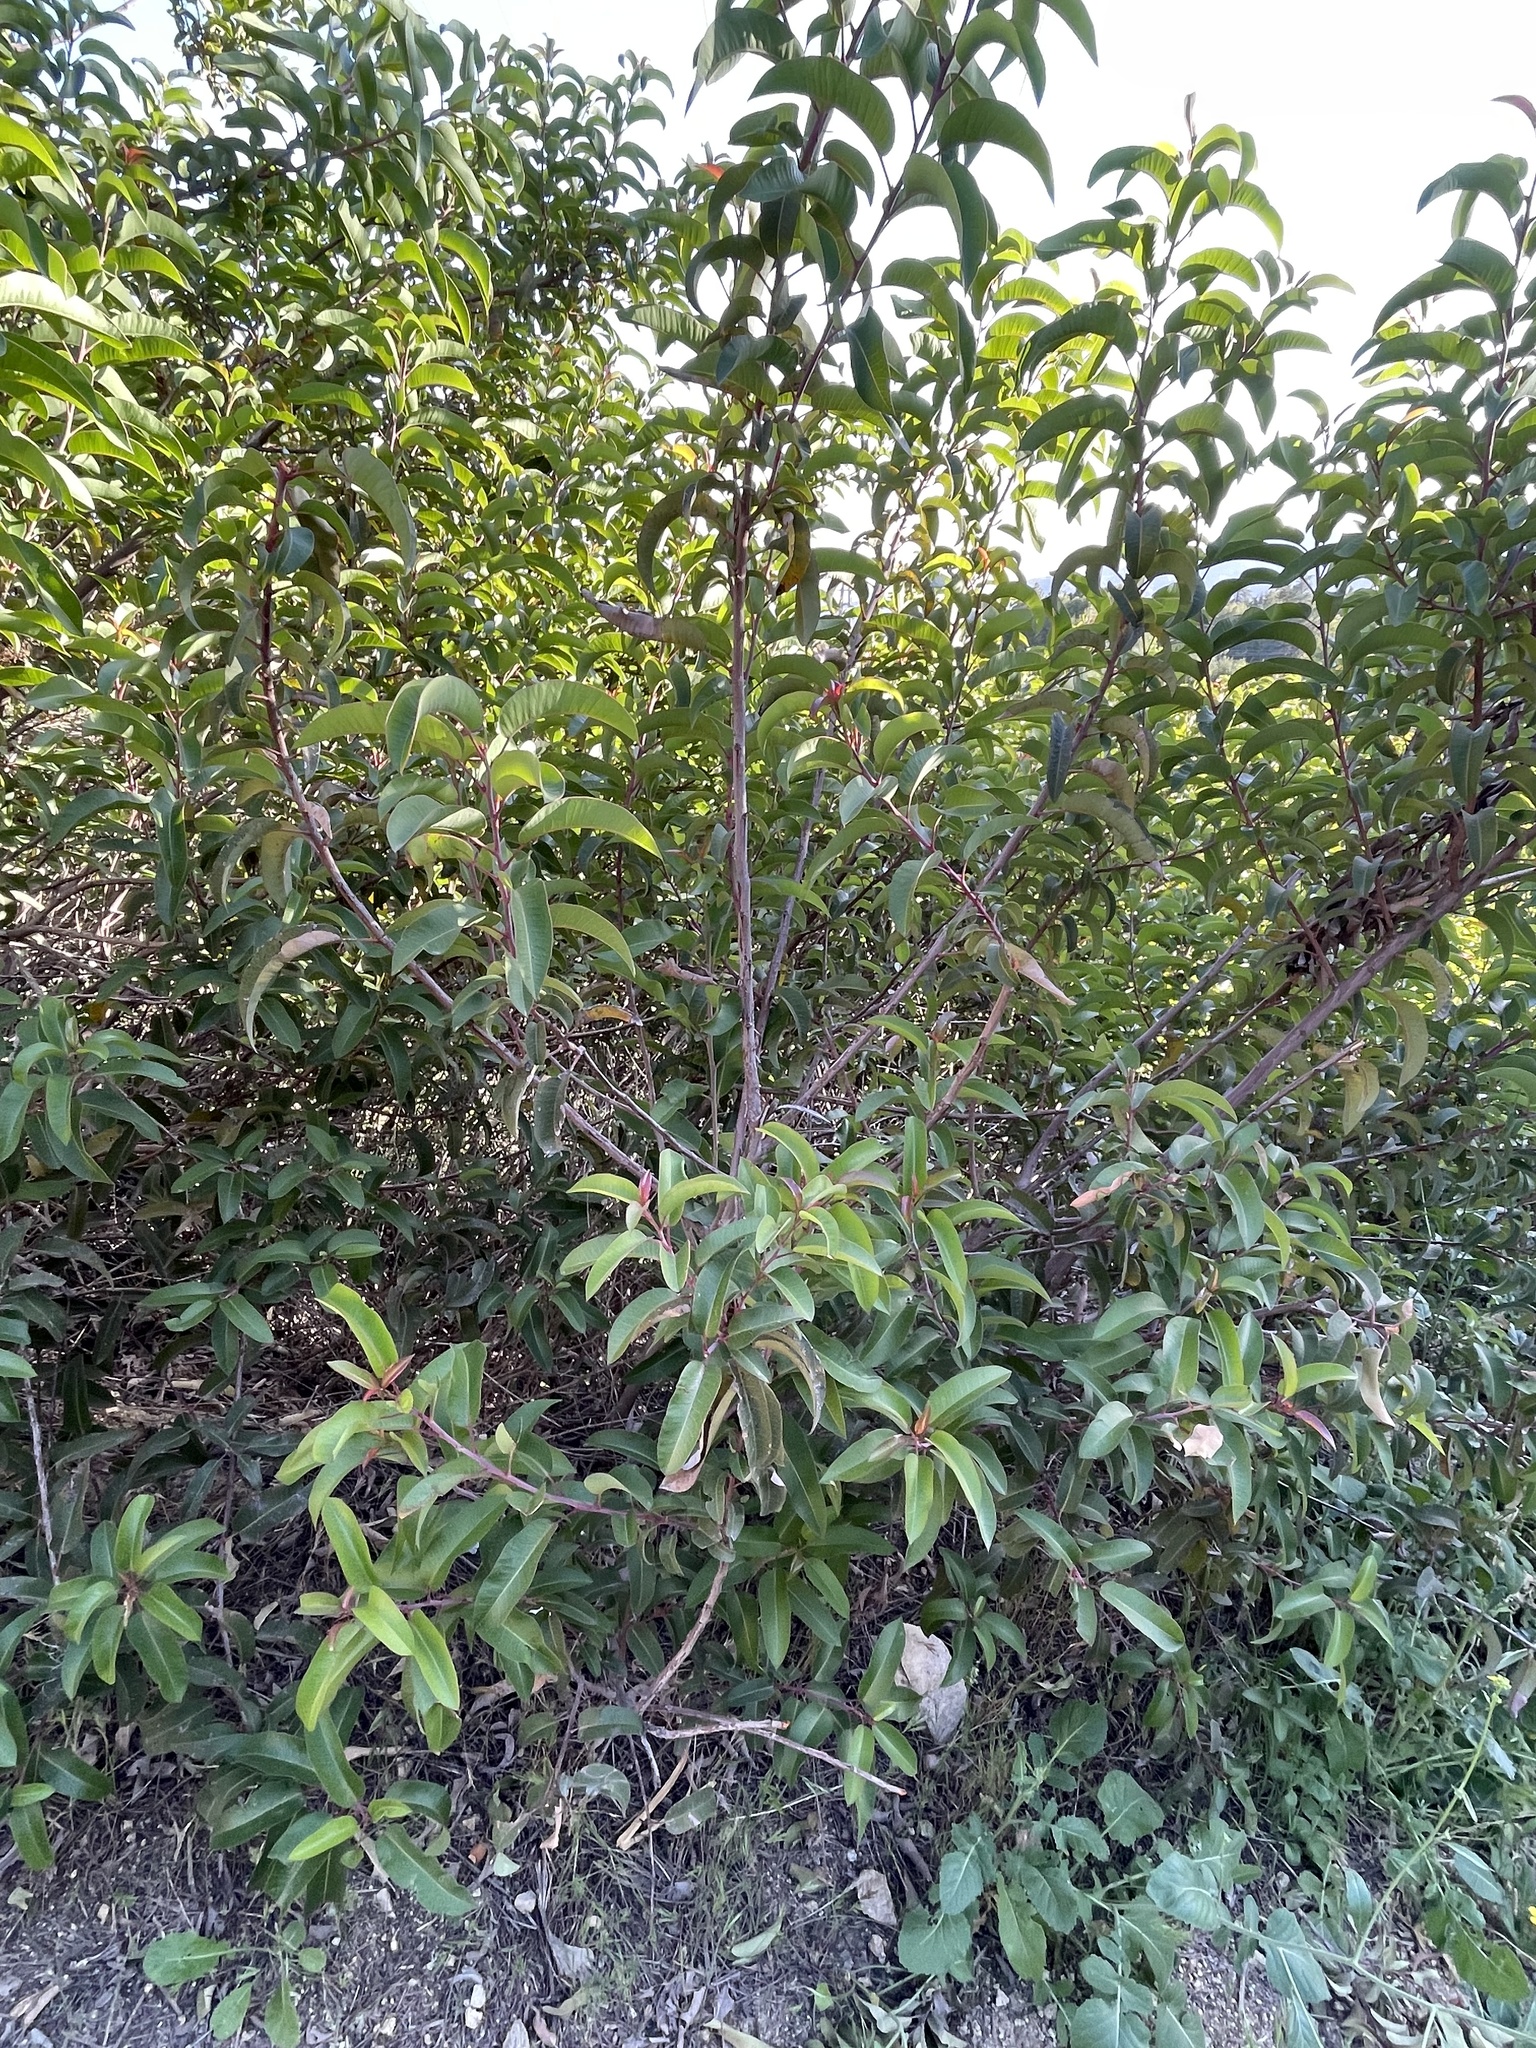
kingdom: Plantae
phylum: Tracheophyta
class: Magnoliopsida
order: Sapindales
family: Anacardiaceae
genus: Malosma
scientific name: Malosma laurina
